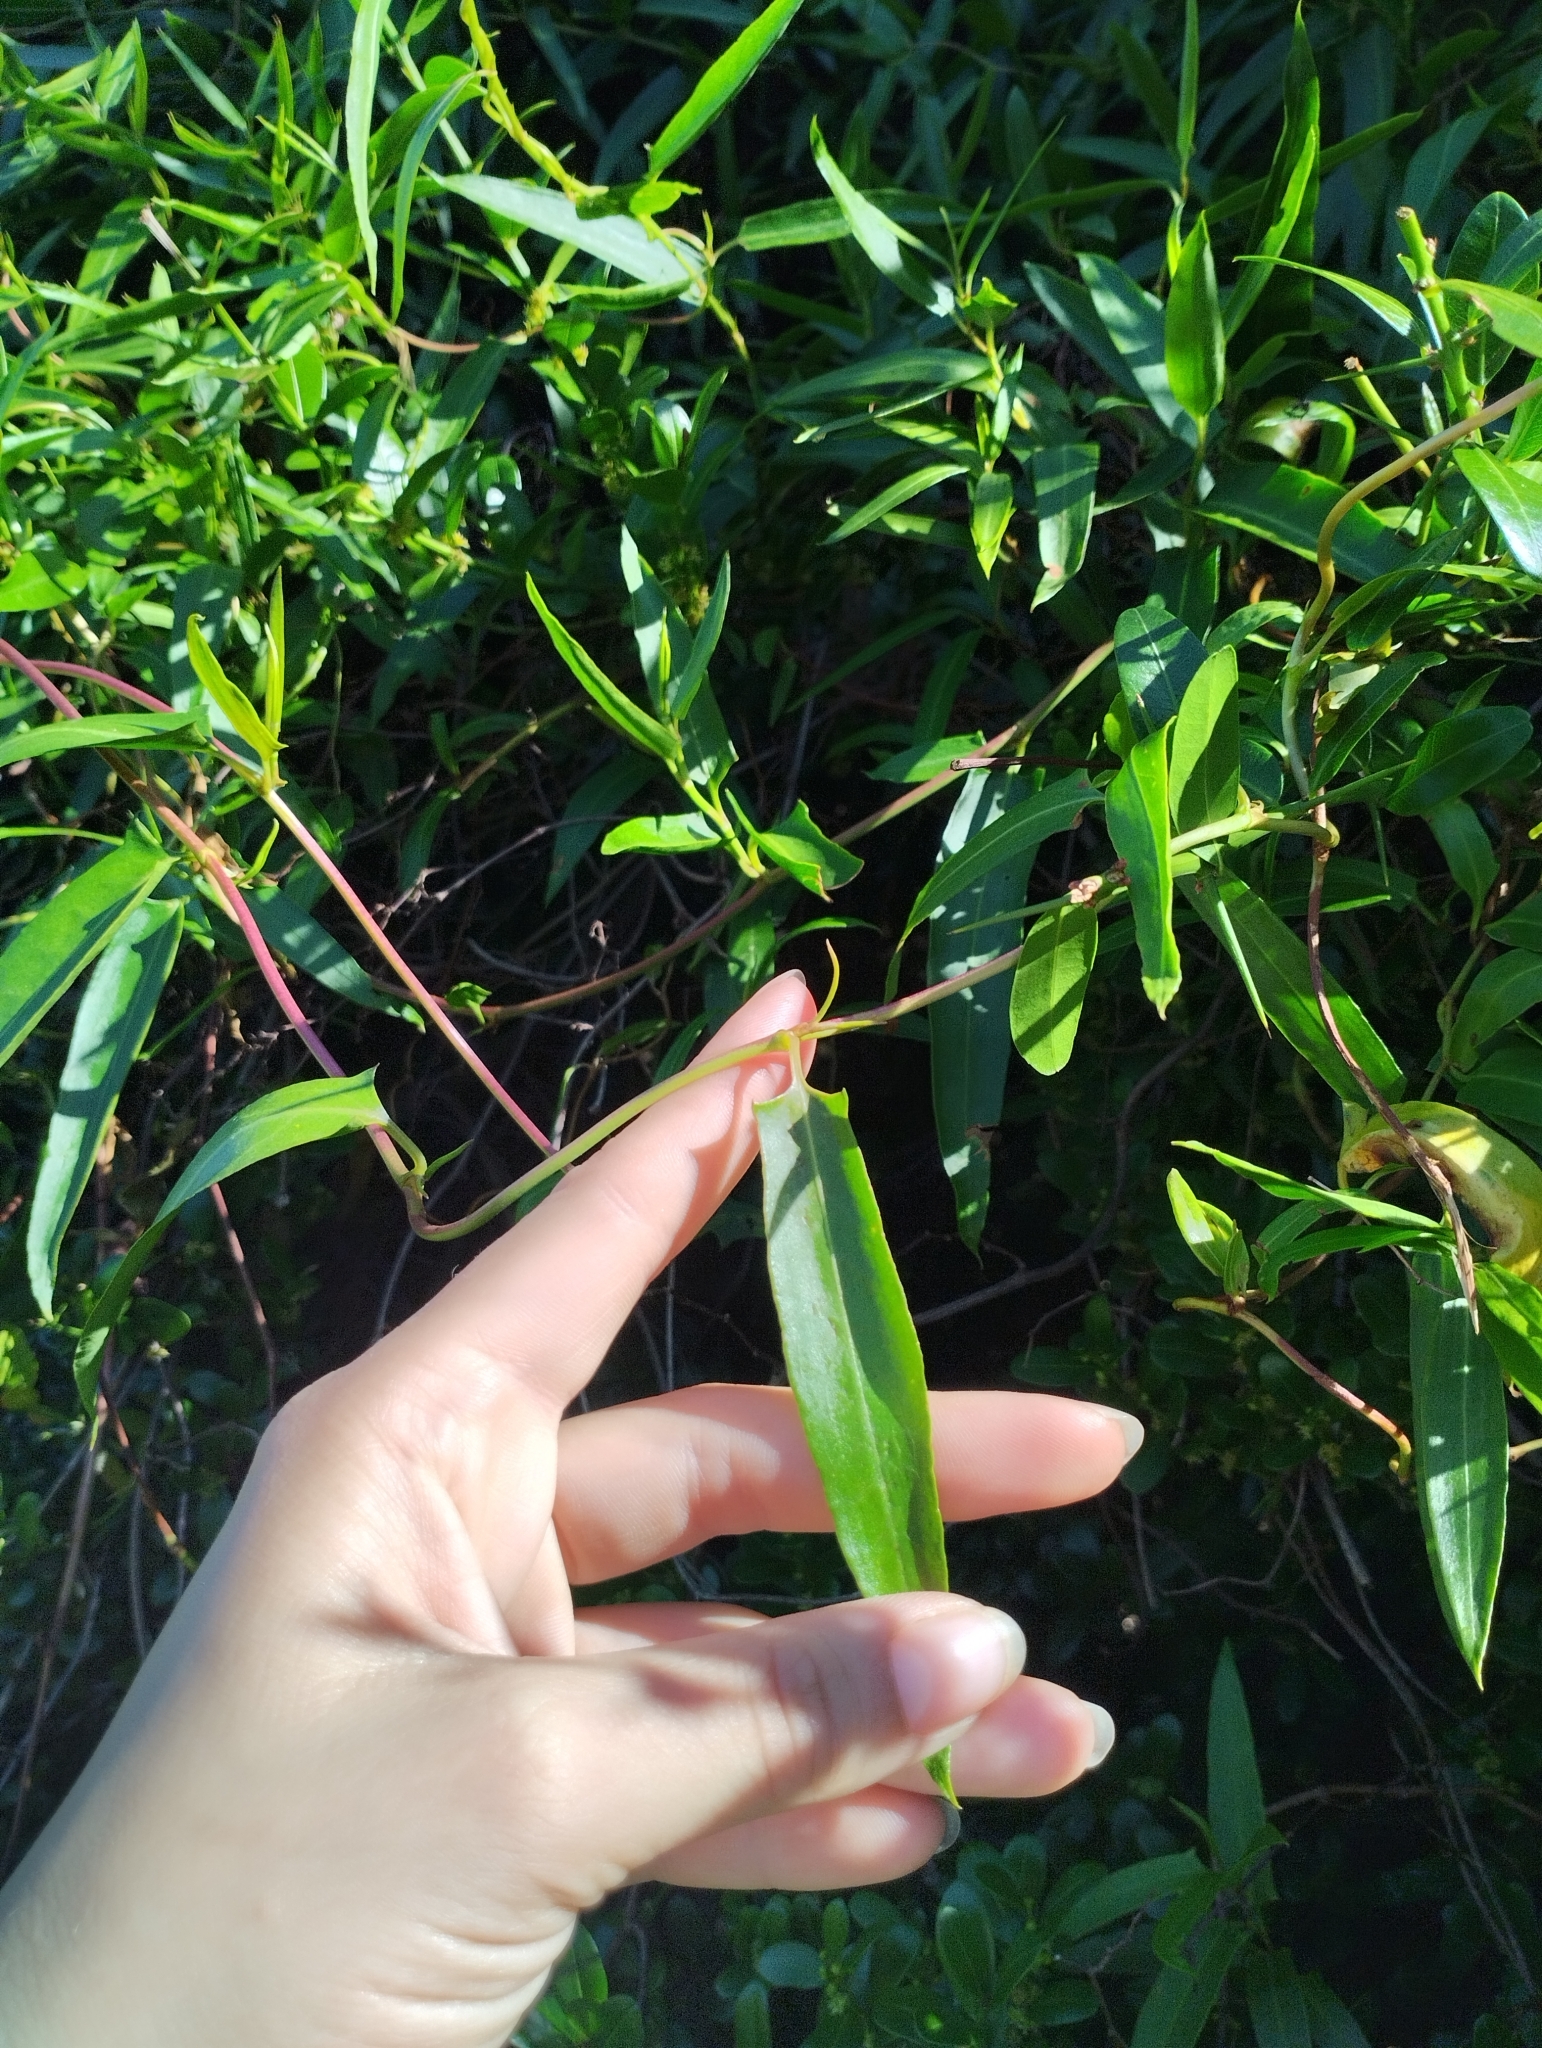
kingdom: Plantae
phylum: Tracheophyta
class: Magnoliopsida
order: Caryophyllales
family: Polygonaceae
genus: Muehlenbeckia
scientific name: Muehlenbeckia sagittifolia
